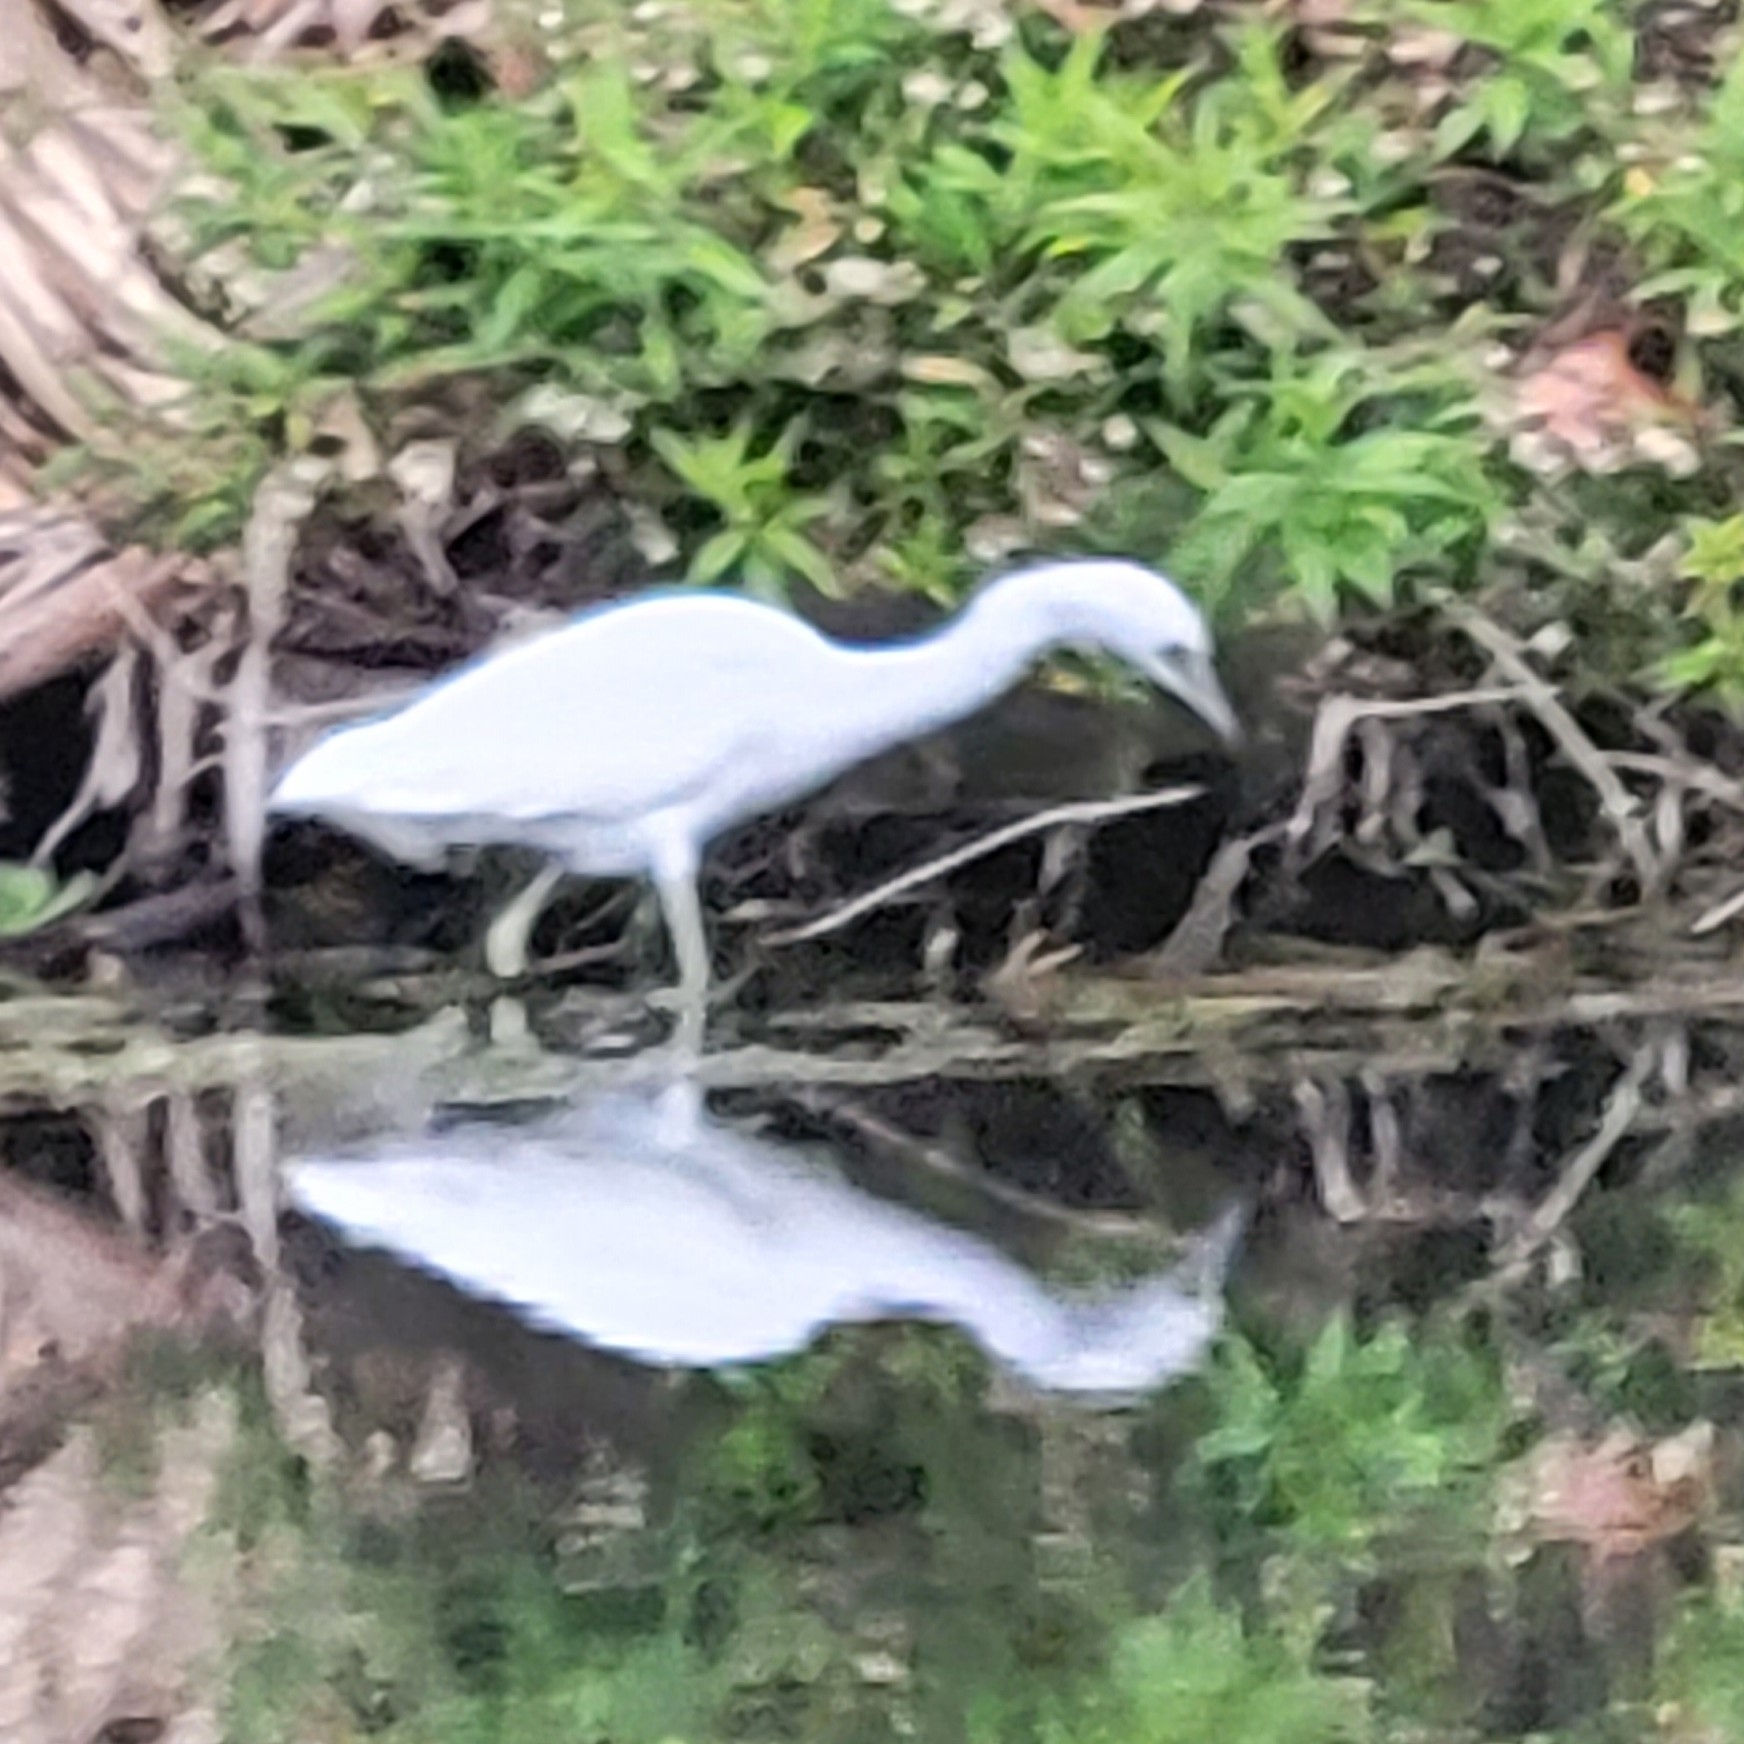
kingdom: Animalia
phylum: Chordata
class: Aves
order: Pelecaniformes
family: Ardeidae
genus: Egretta
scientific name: Egretta caerulea
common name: Little blue heron
